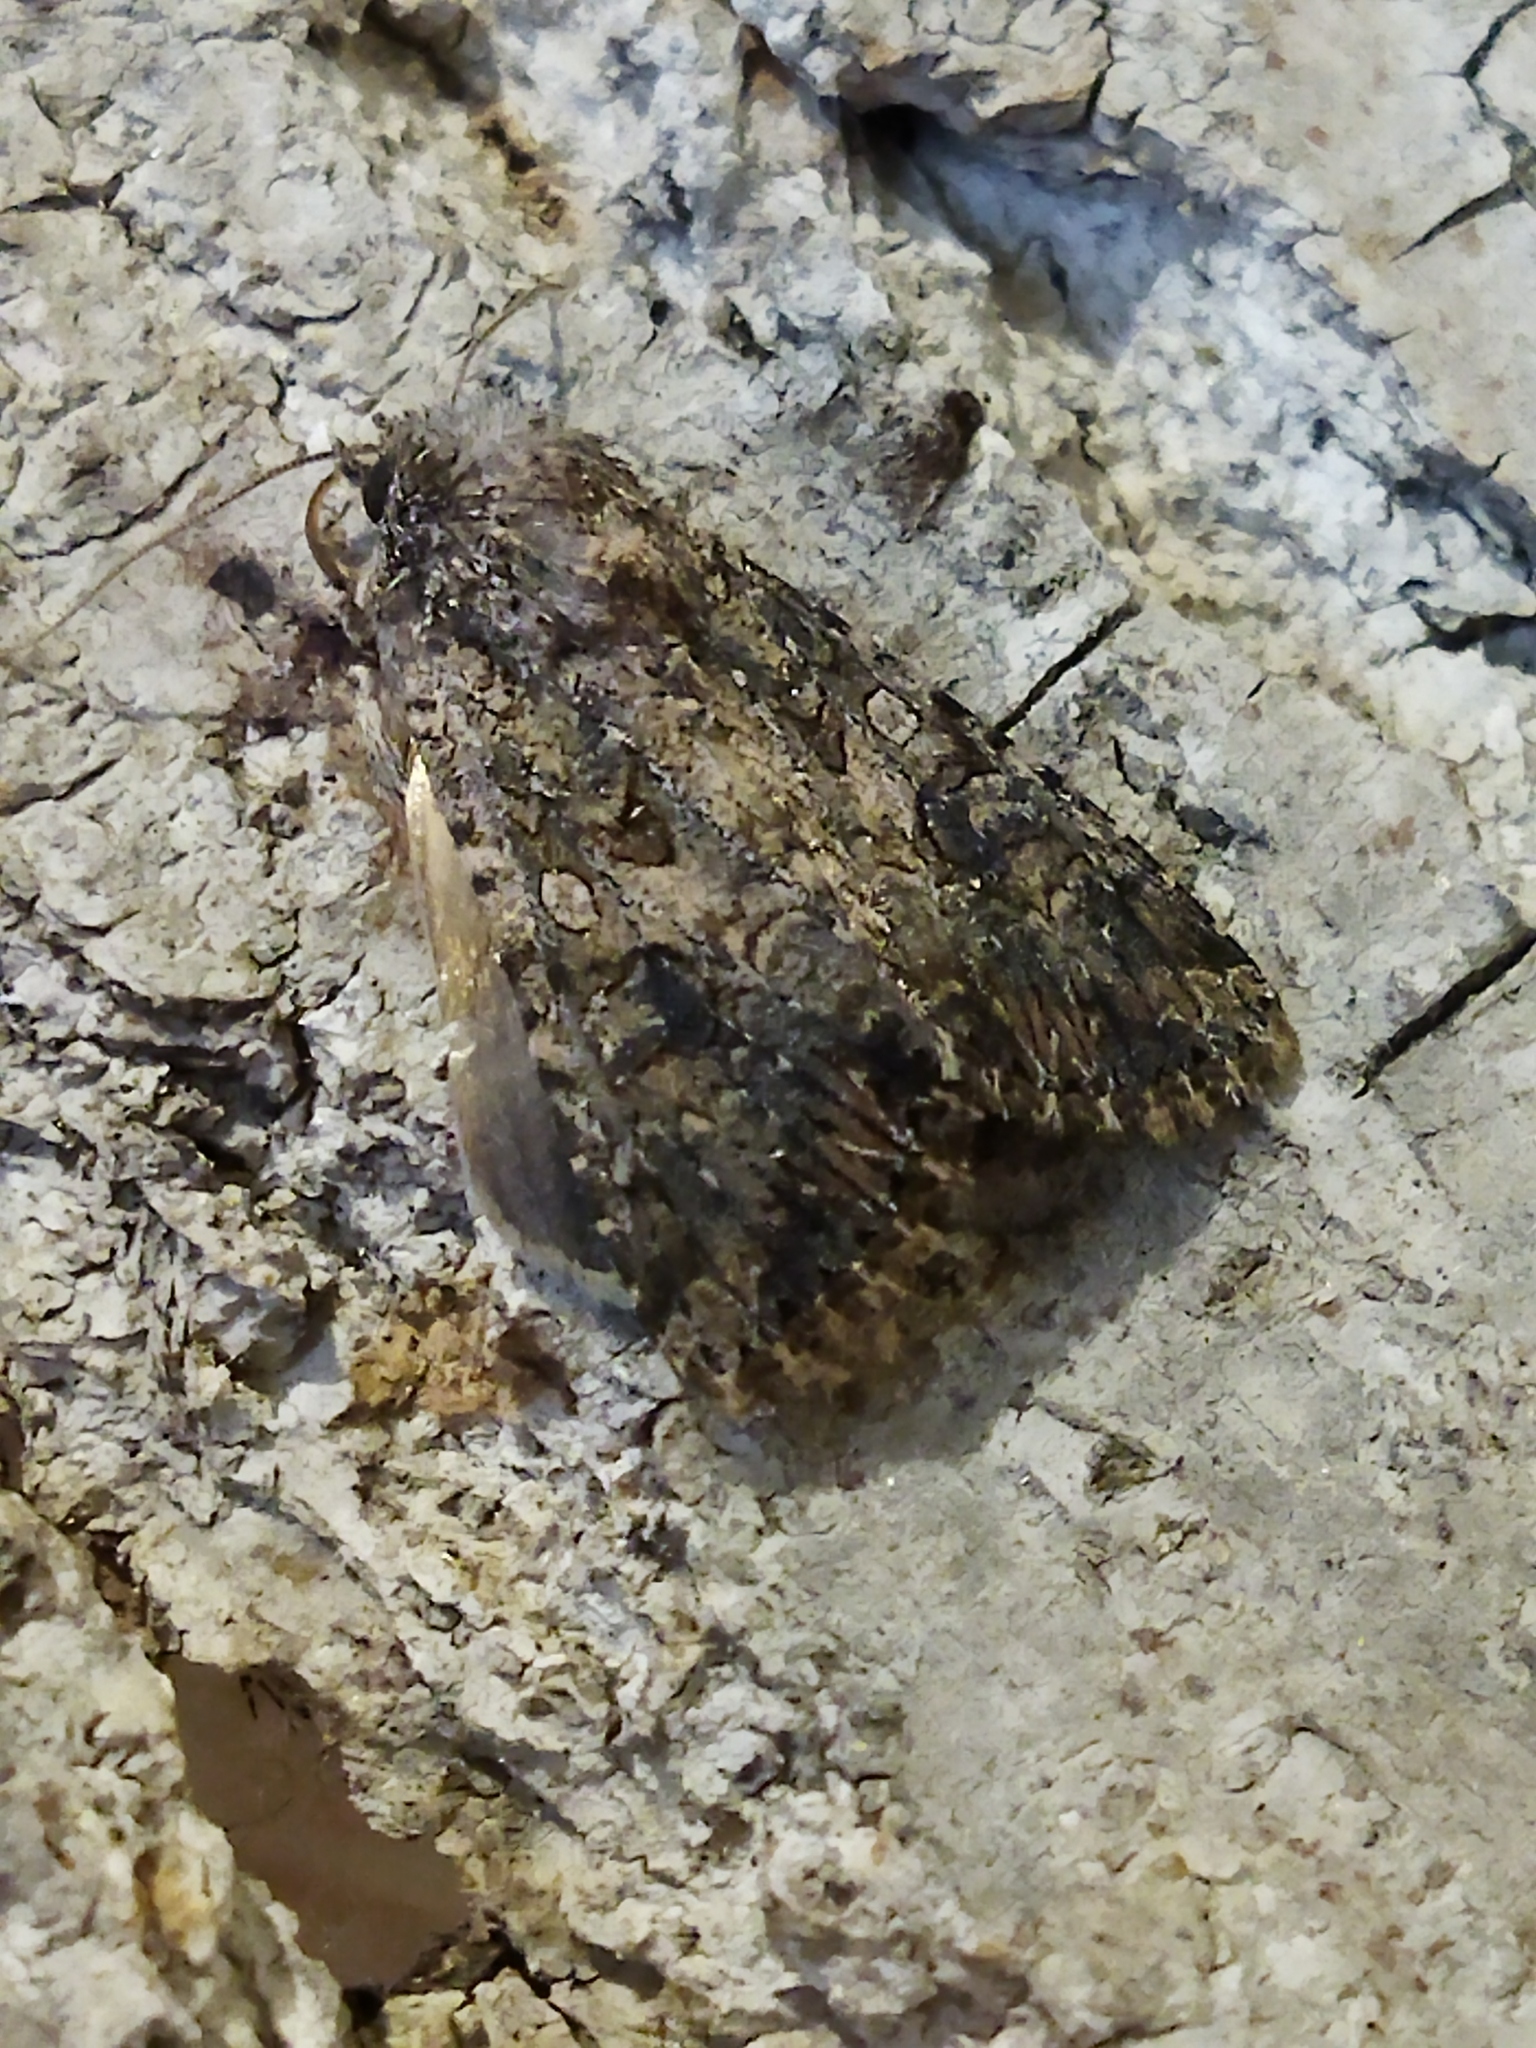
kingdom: Animalia
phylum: Arthropoda
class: Insecta
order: Lepidoptera
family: Noctuidae
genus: Anarta
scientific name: Anarta trifolii
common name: Clover cutworm moth
